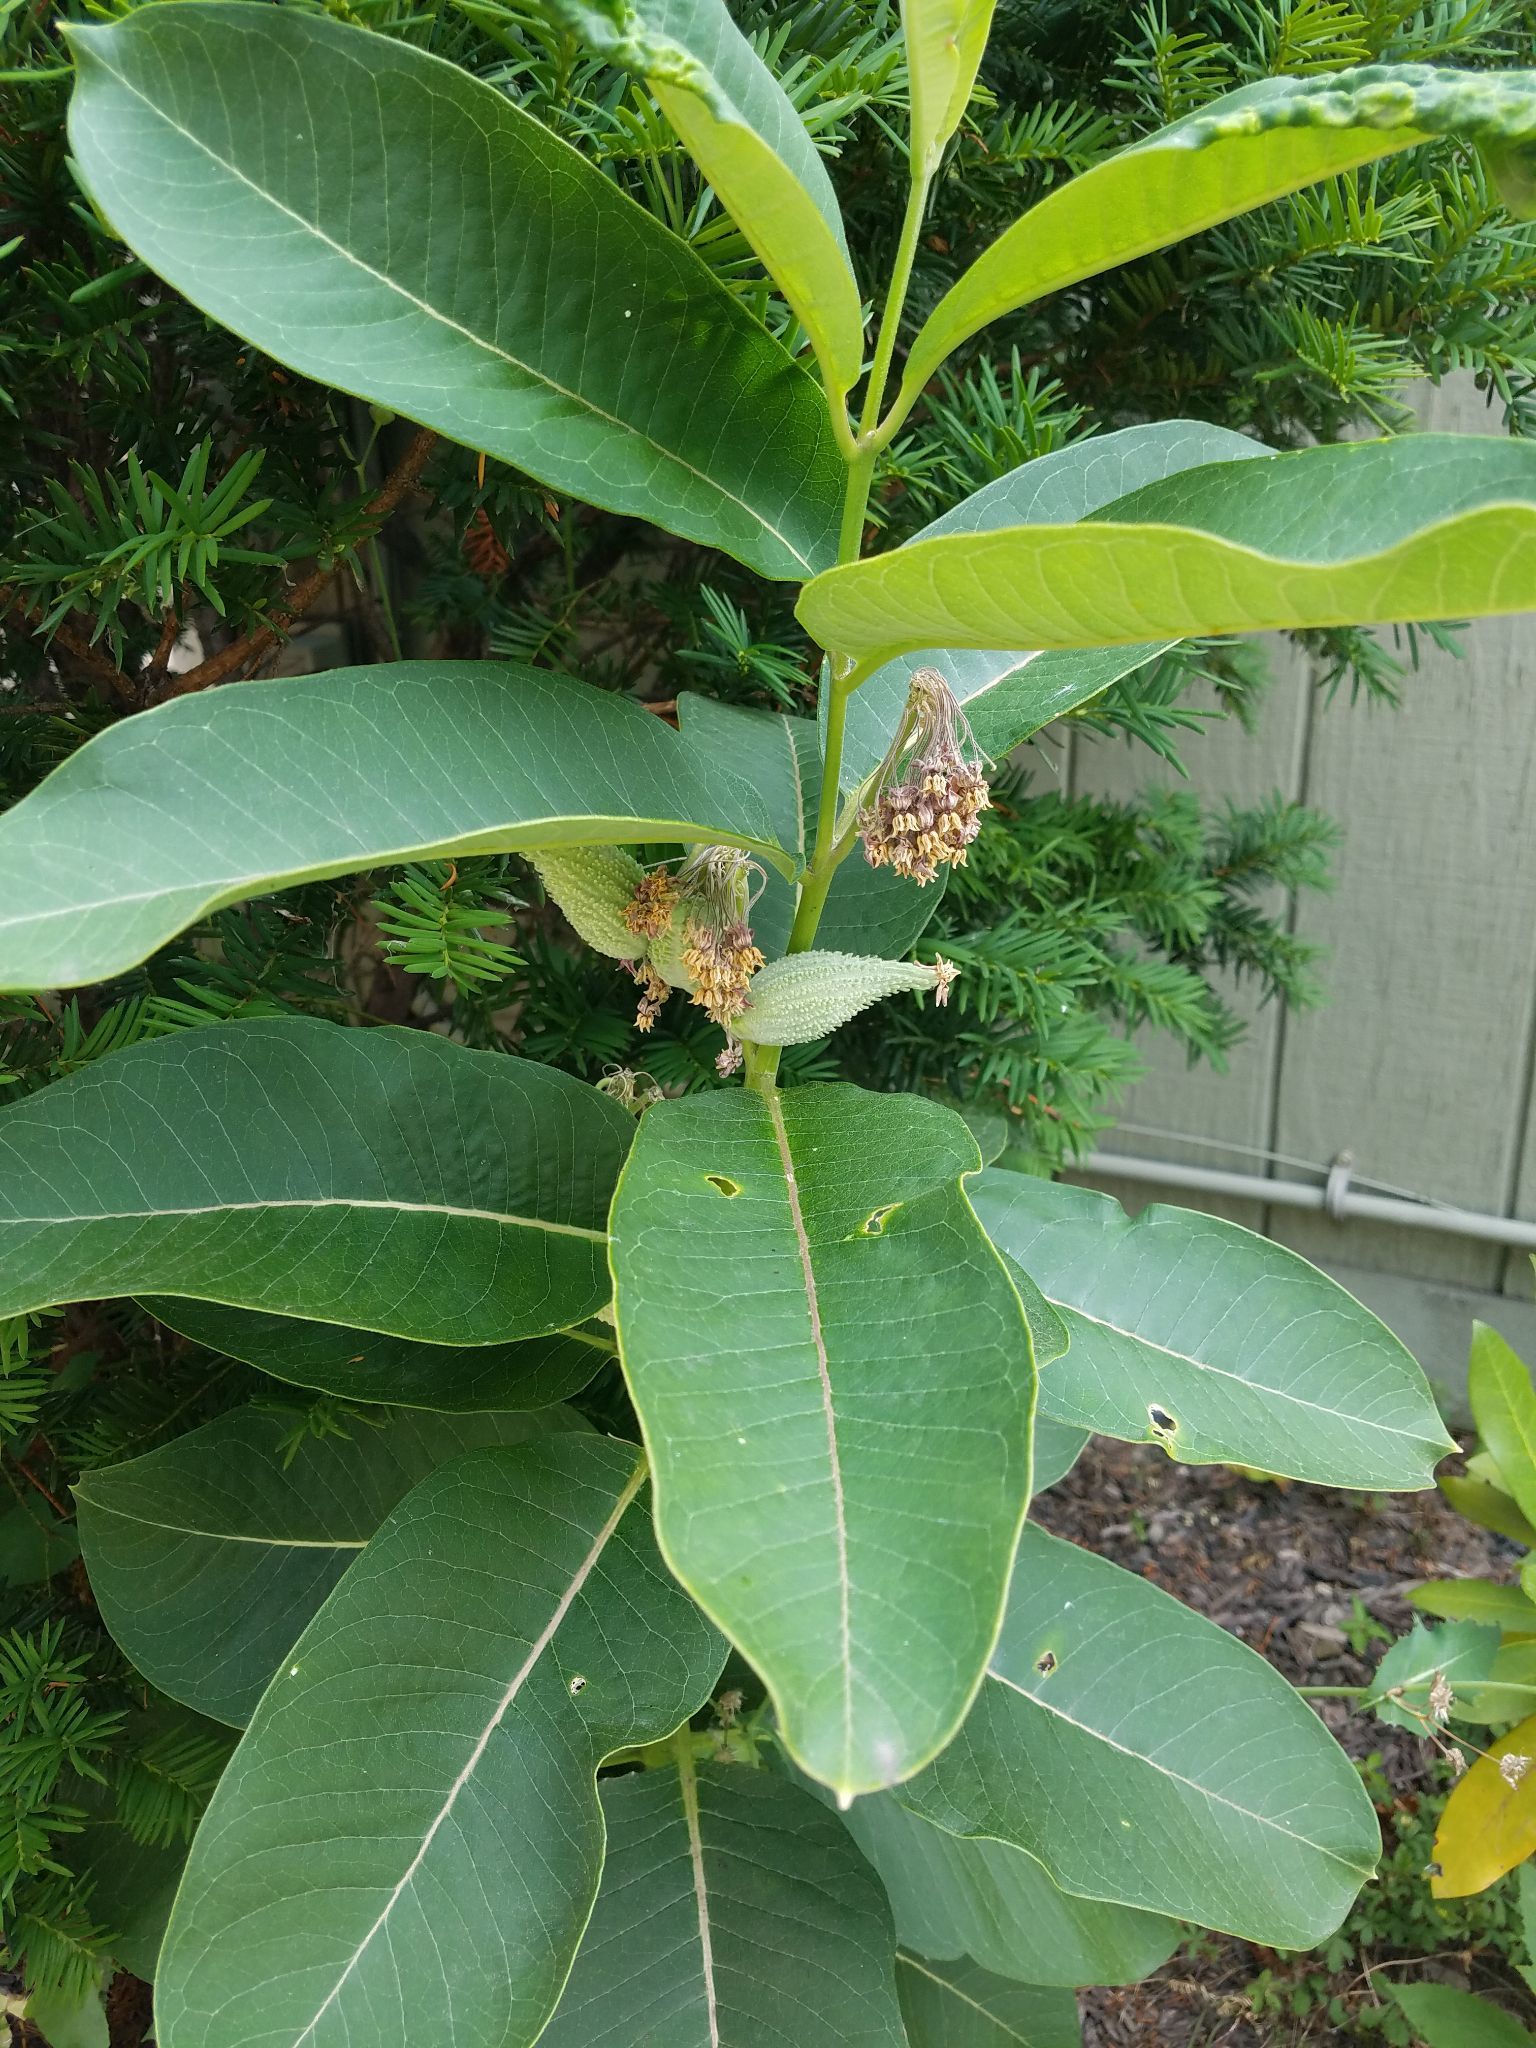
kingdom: Plantae
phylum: Tracheophyta
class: Magnoliopsida
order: Gentianales
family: Apocynaceae
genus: Asclepias
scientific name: Asclepias syriaca
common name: Common milkweed
